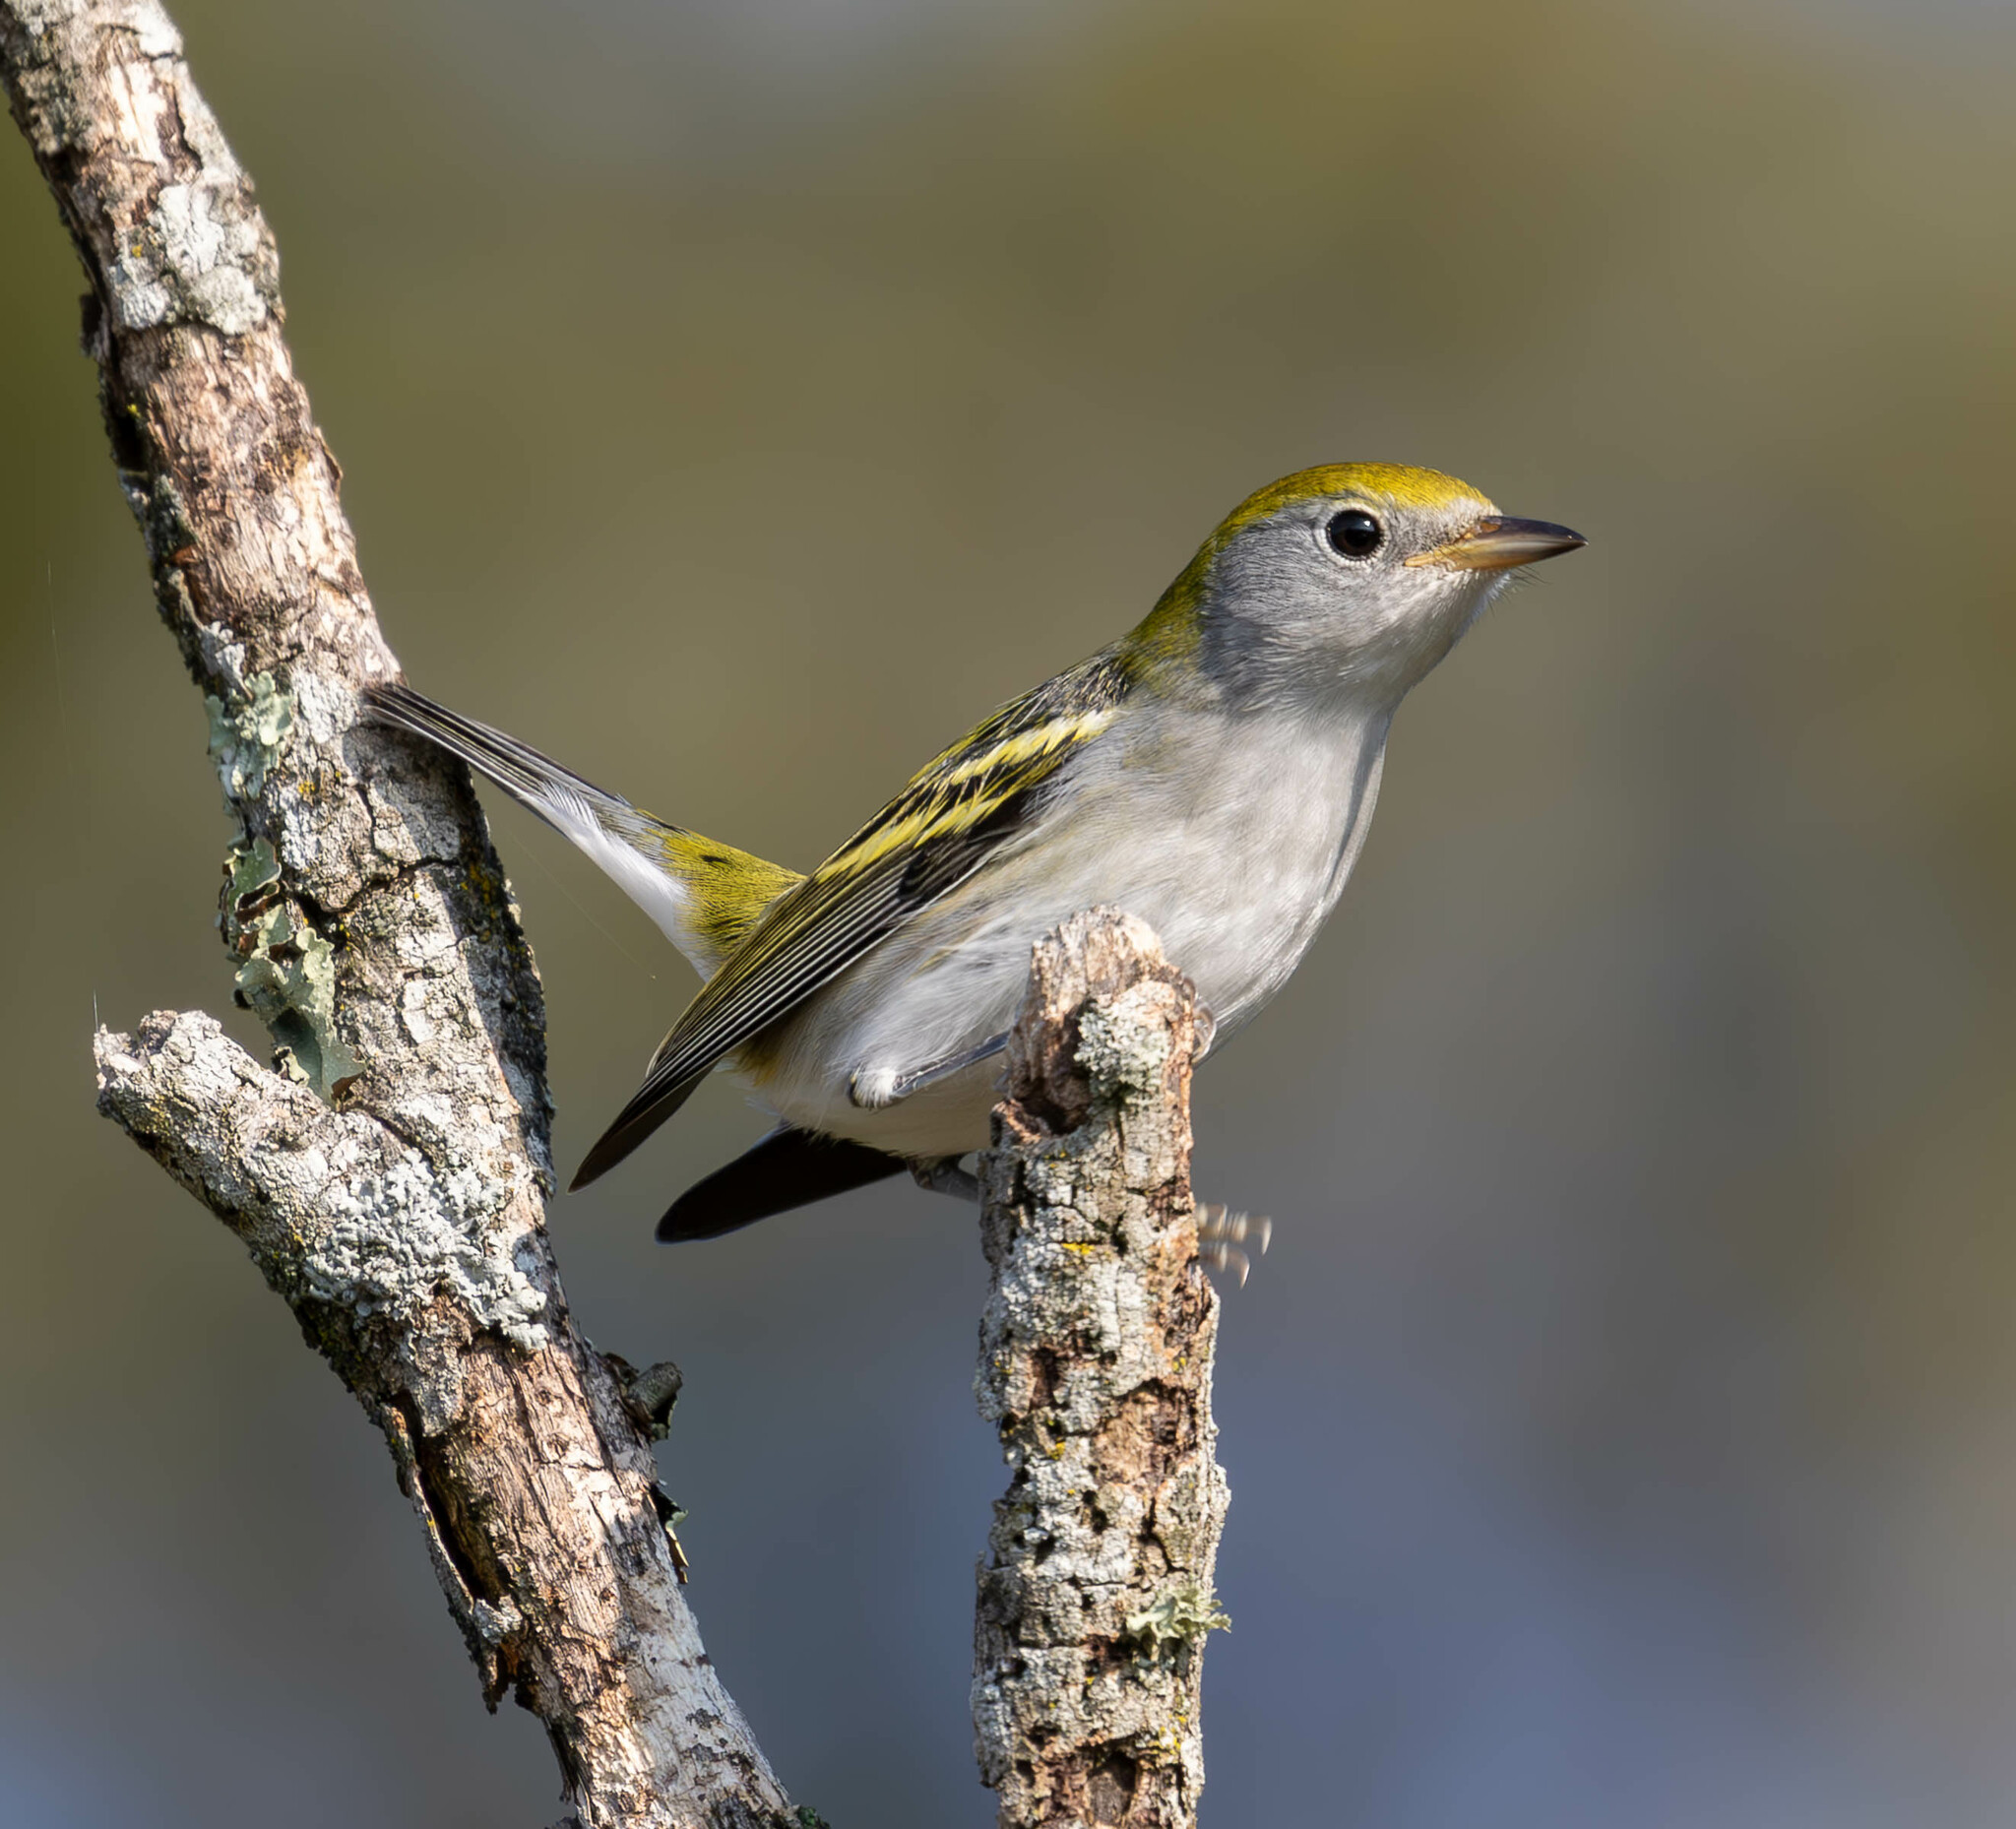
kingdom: Animalia
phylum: Chordata
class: Aves
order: Passeriformes
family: Parulidae
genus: Setophaga
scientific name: Setophaga pensylvanica
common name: Chestnut-sided warbler
